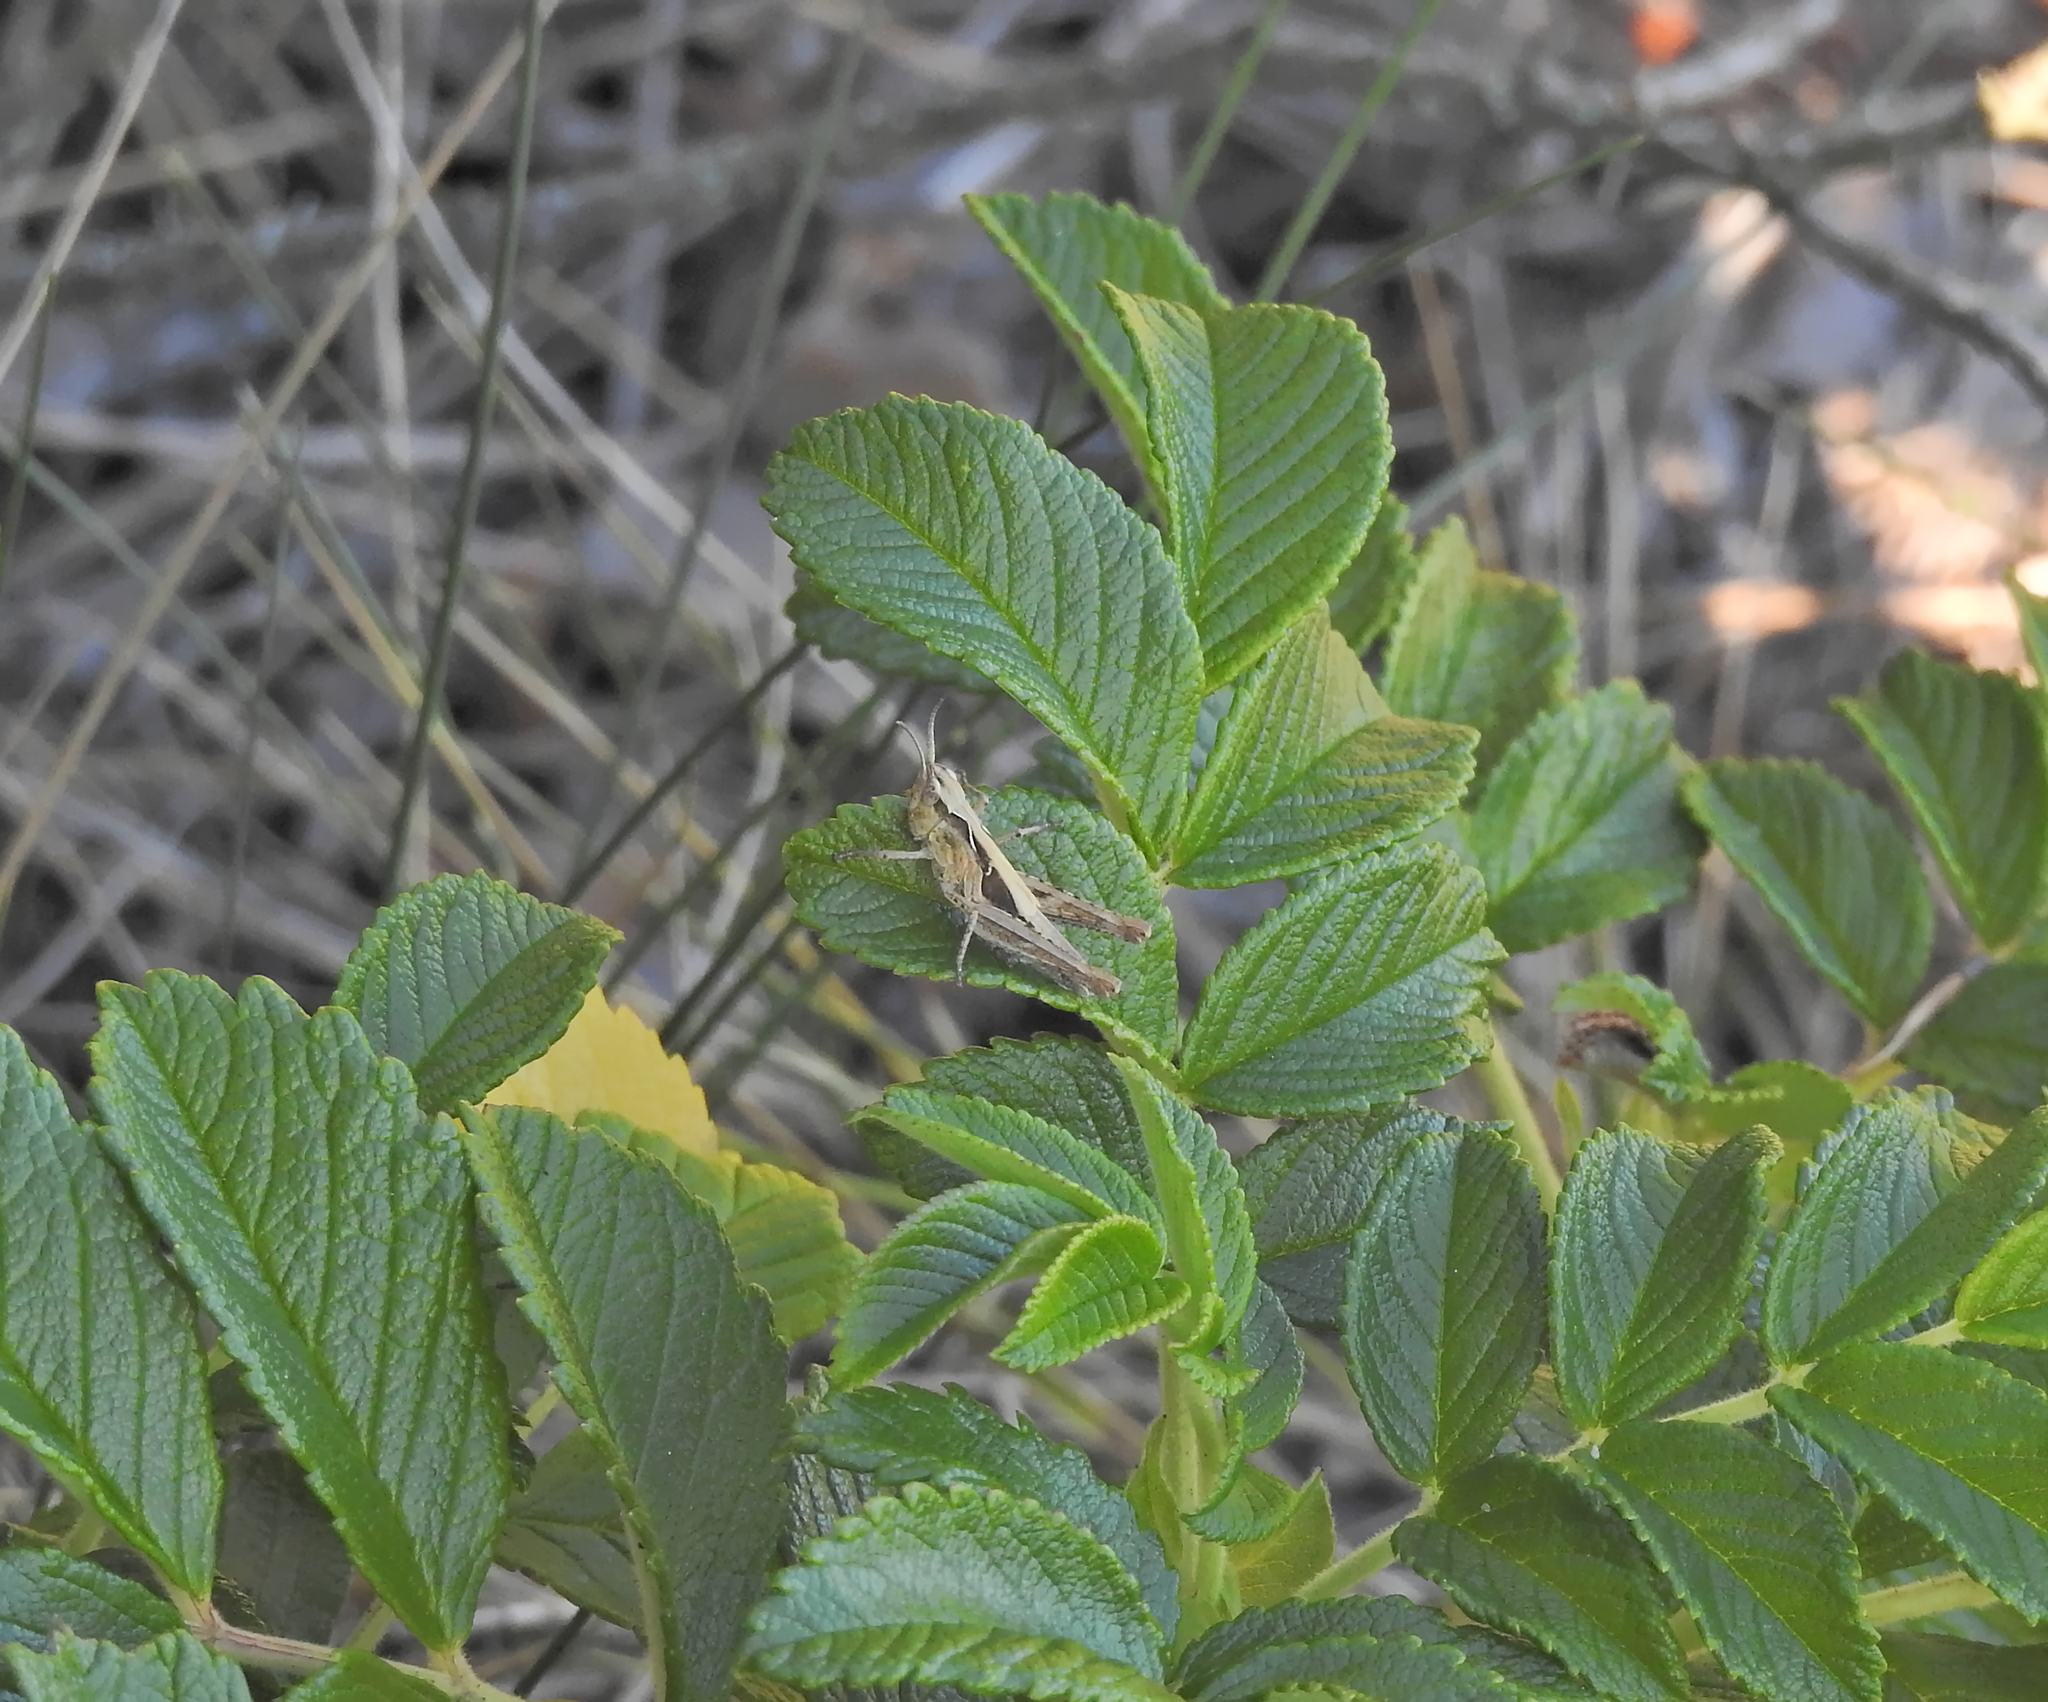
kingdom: Animalia
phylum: Arthropoda
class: Insecta
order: Orthoptera
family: Acrididae
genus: Glyptobothrus
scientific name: Glyptobothrus
